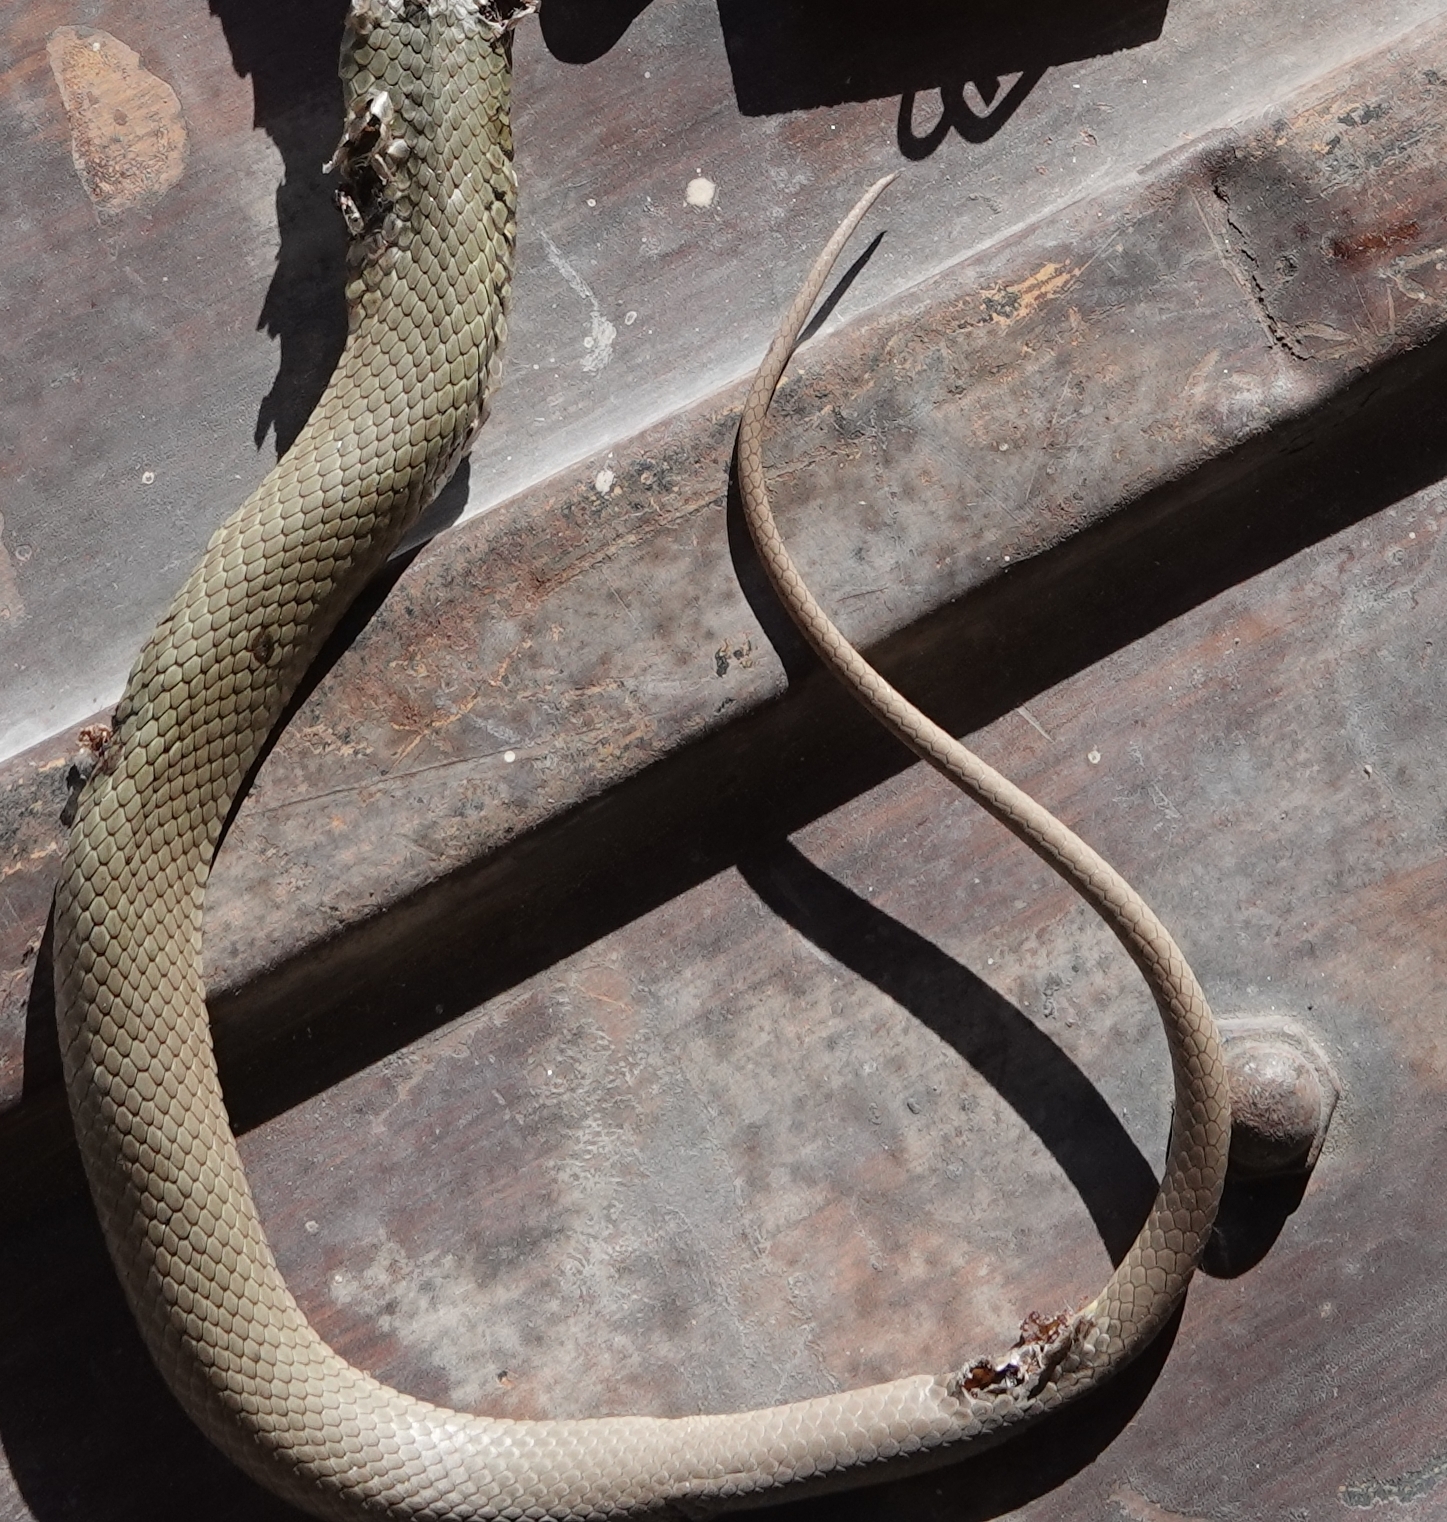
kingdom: Animalia
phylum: Chordata
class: Squamata
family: Colubridae
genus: Coluber
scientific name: Coluber constrictor
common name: Eastern racer
